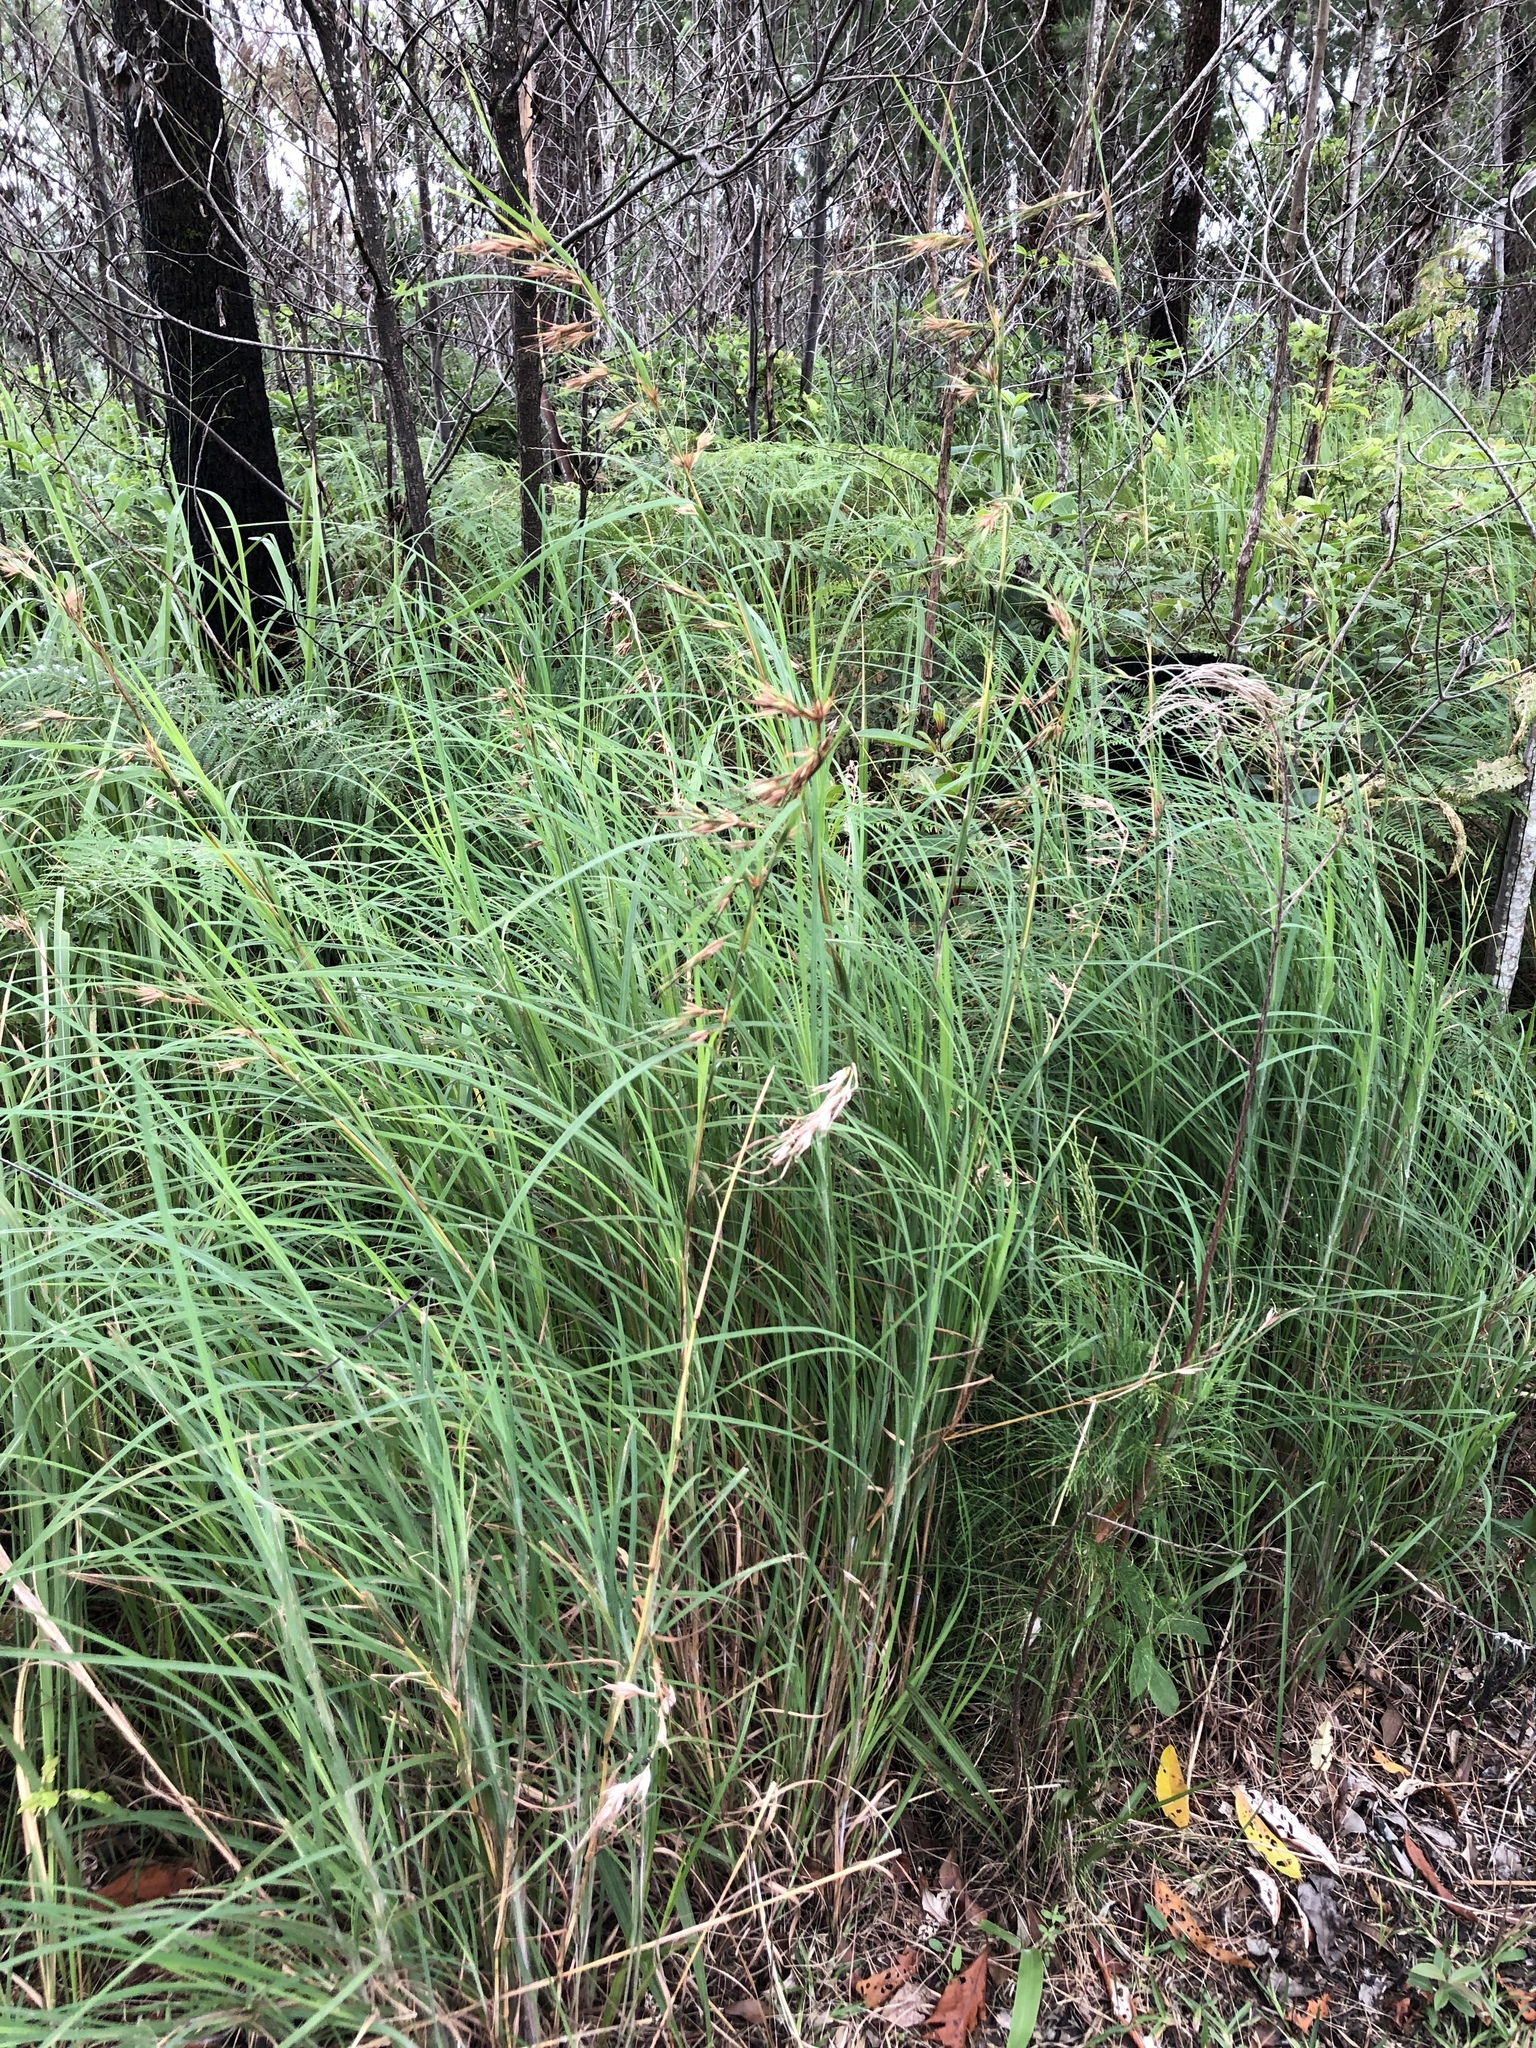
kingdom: Plantae
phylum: Tracheophyta
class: Liliopsida
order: Poales
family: Poaceae
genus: Themeda
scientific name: Themeda triandra
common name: Kangaroo grass
